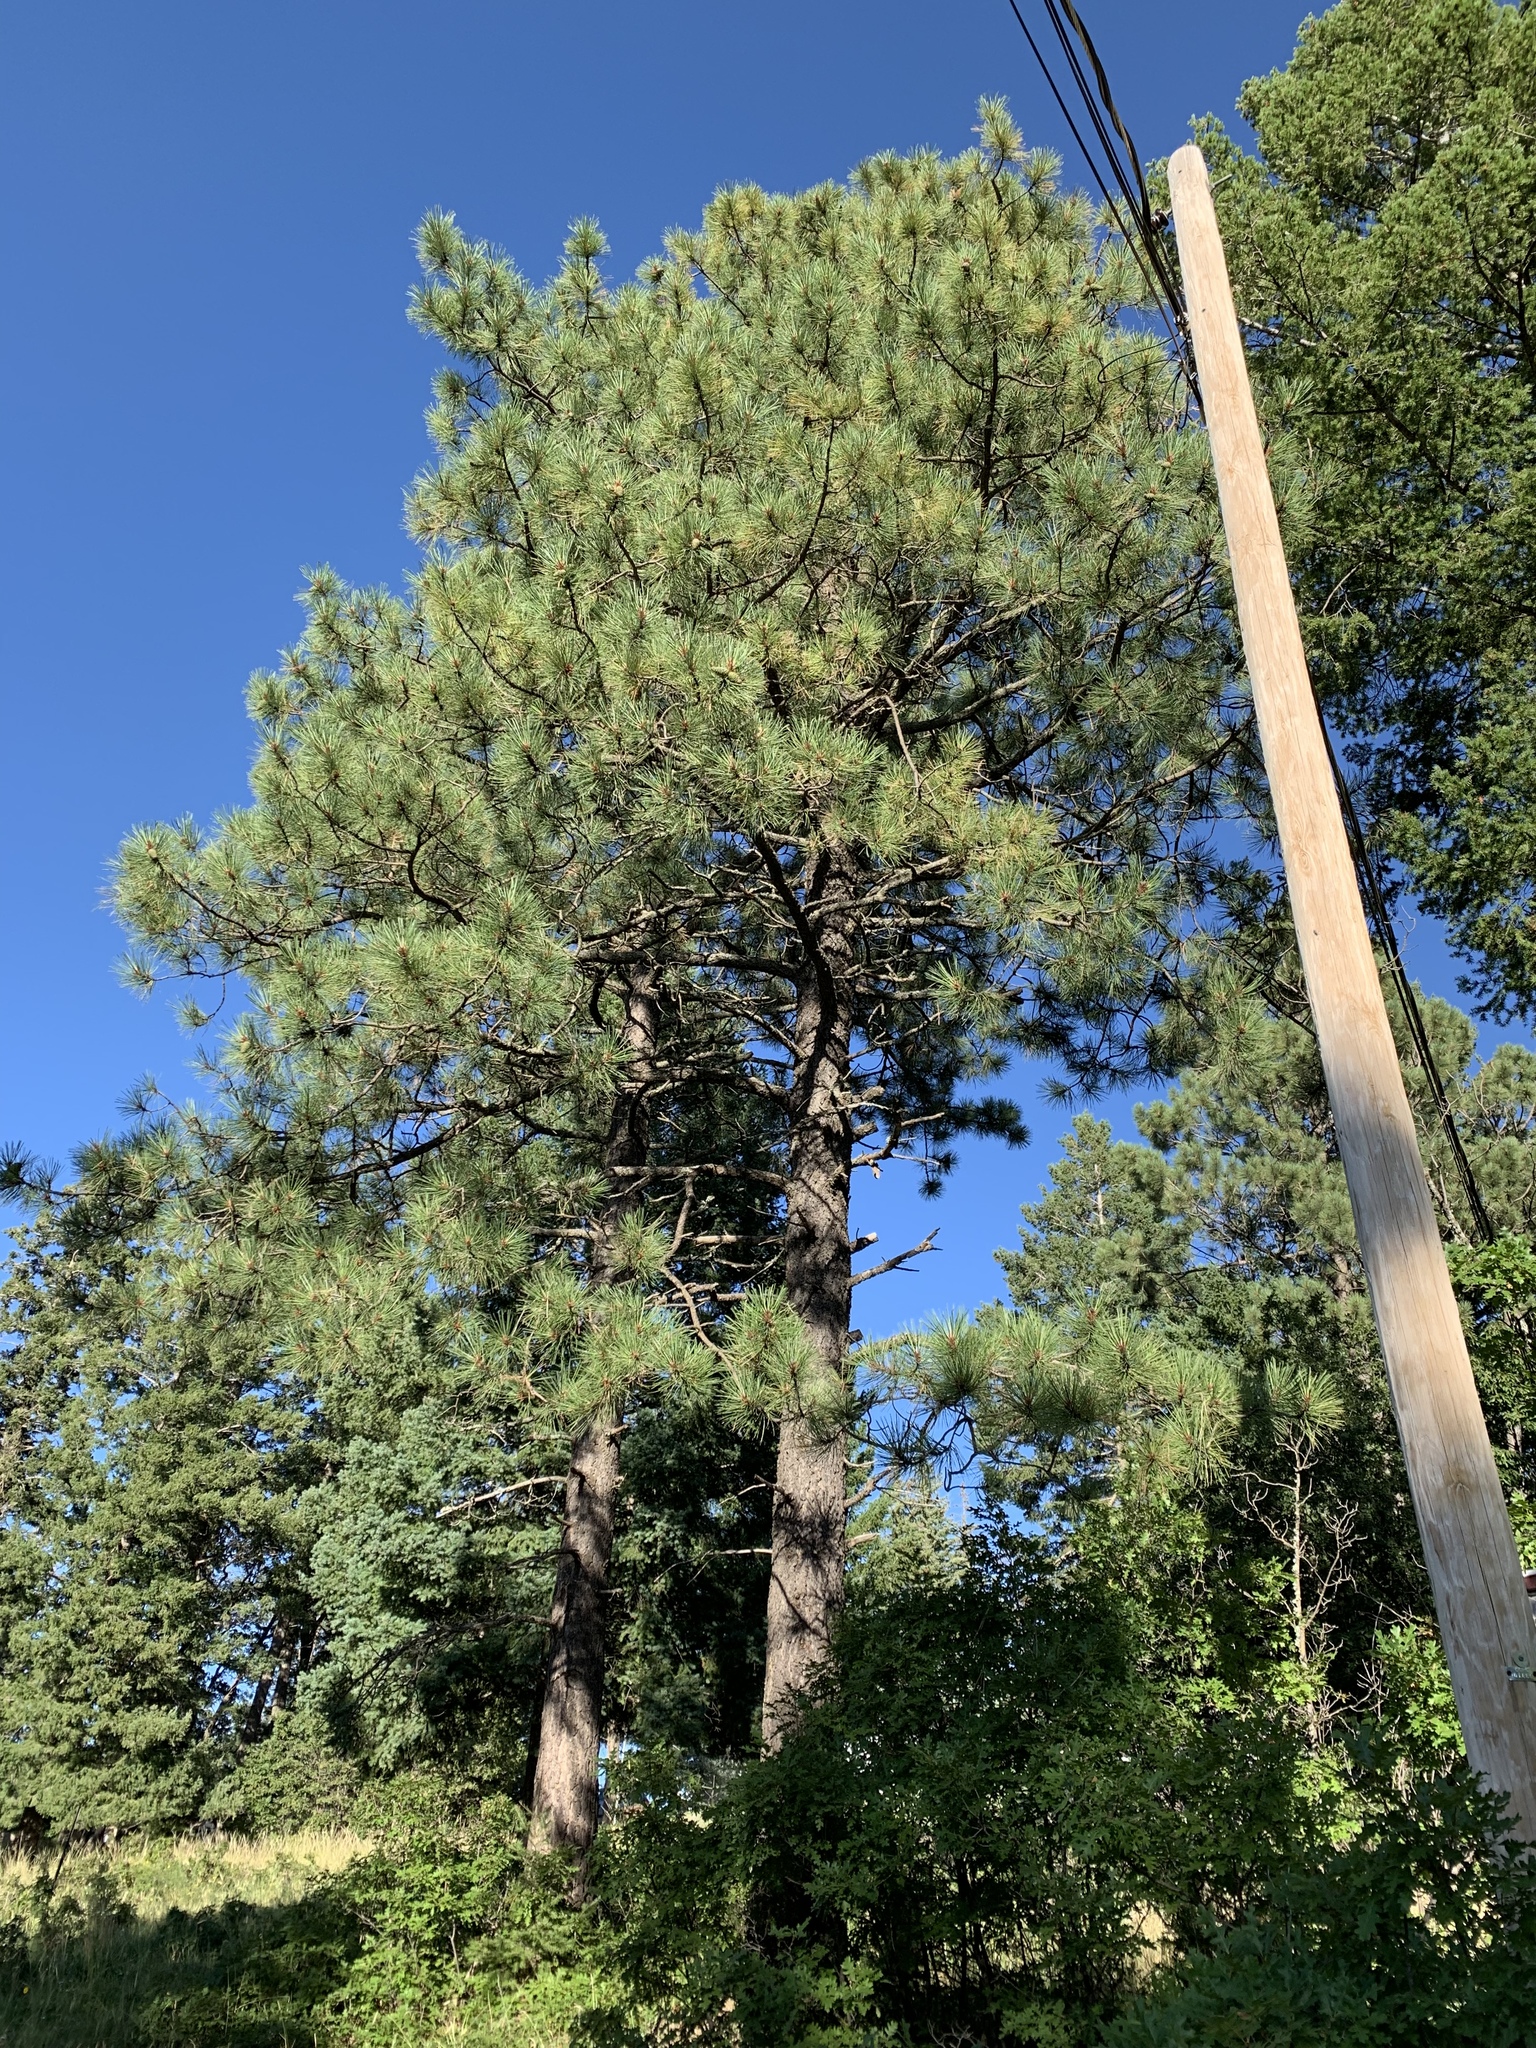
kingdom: Plantae
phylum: Tracheophyta
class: Pinopsida
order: Pinales
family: Pinaceae
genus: Pinus
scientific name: Pinus ponderosa
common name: Western yellow-pine
